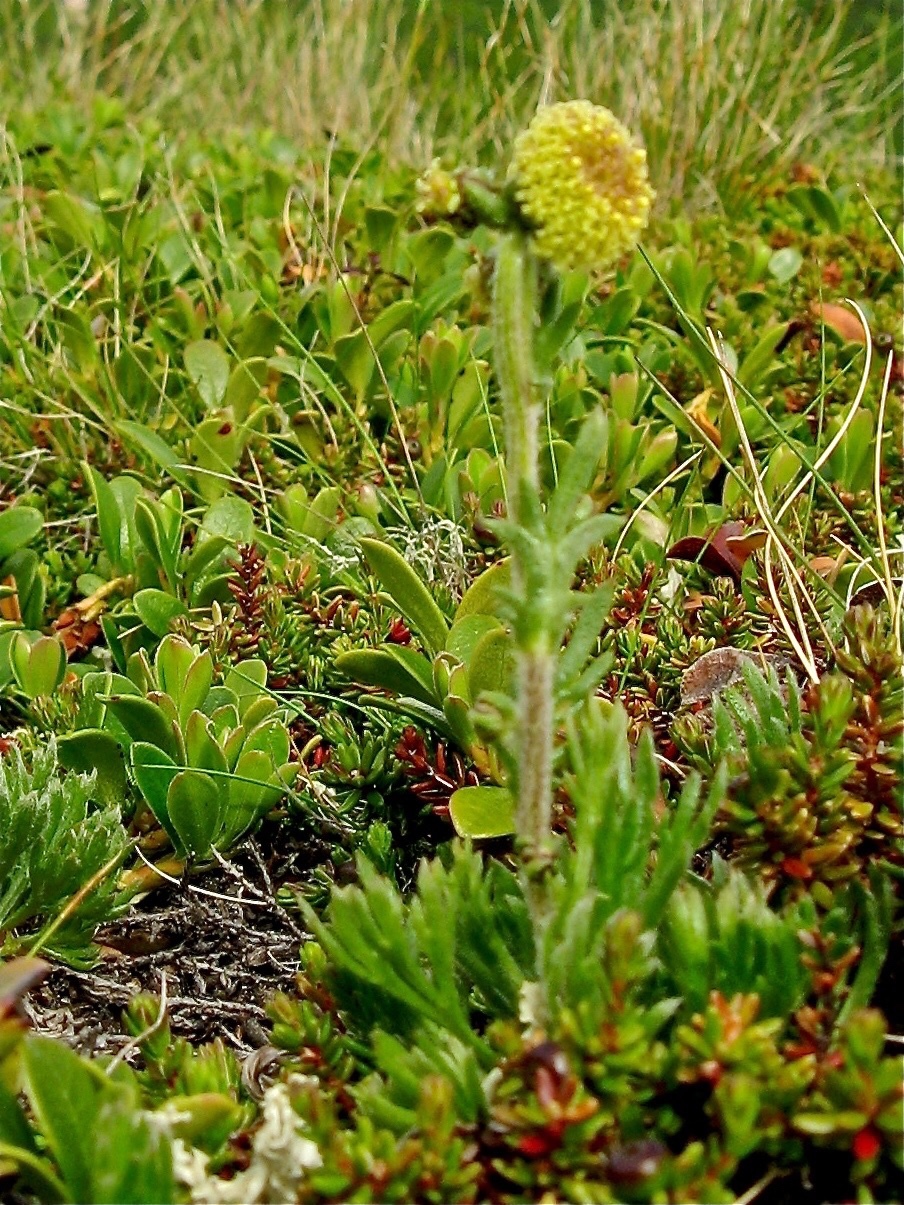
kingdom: Plantae
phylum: Tracheophyta
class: Magnoliopsida
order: Asterales
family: Asteraceae
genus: Artemisia
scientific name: Artemisia norvegica
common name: Norwegian mugwort
